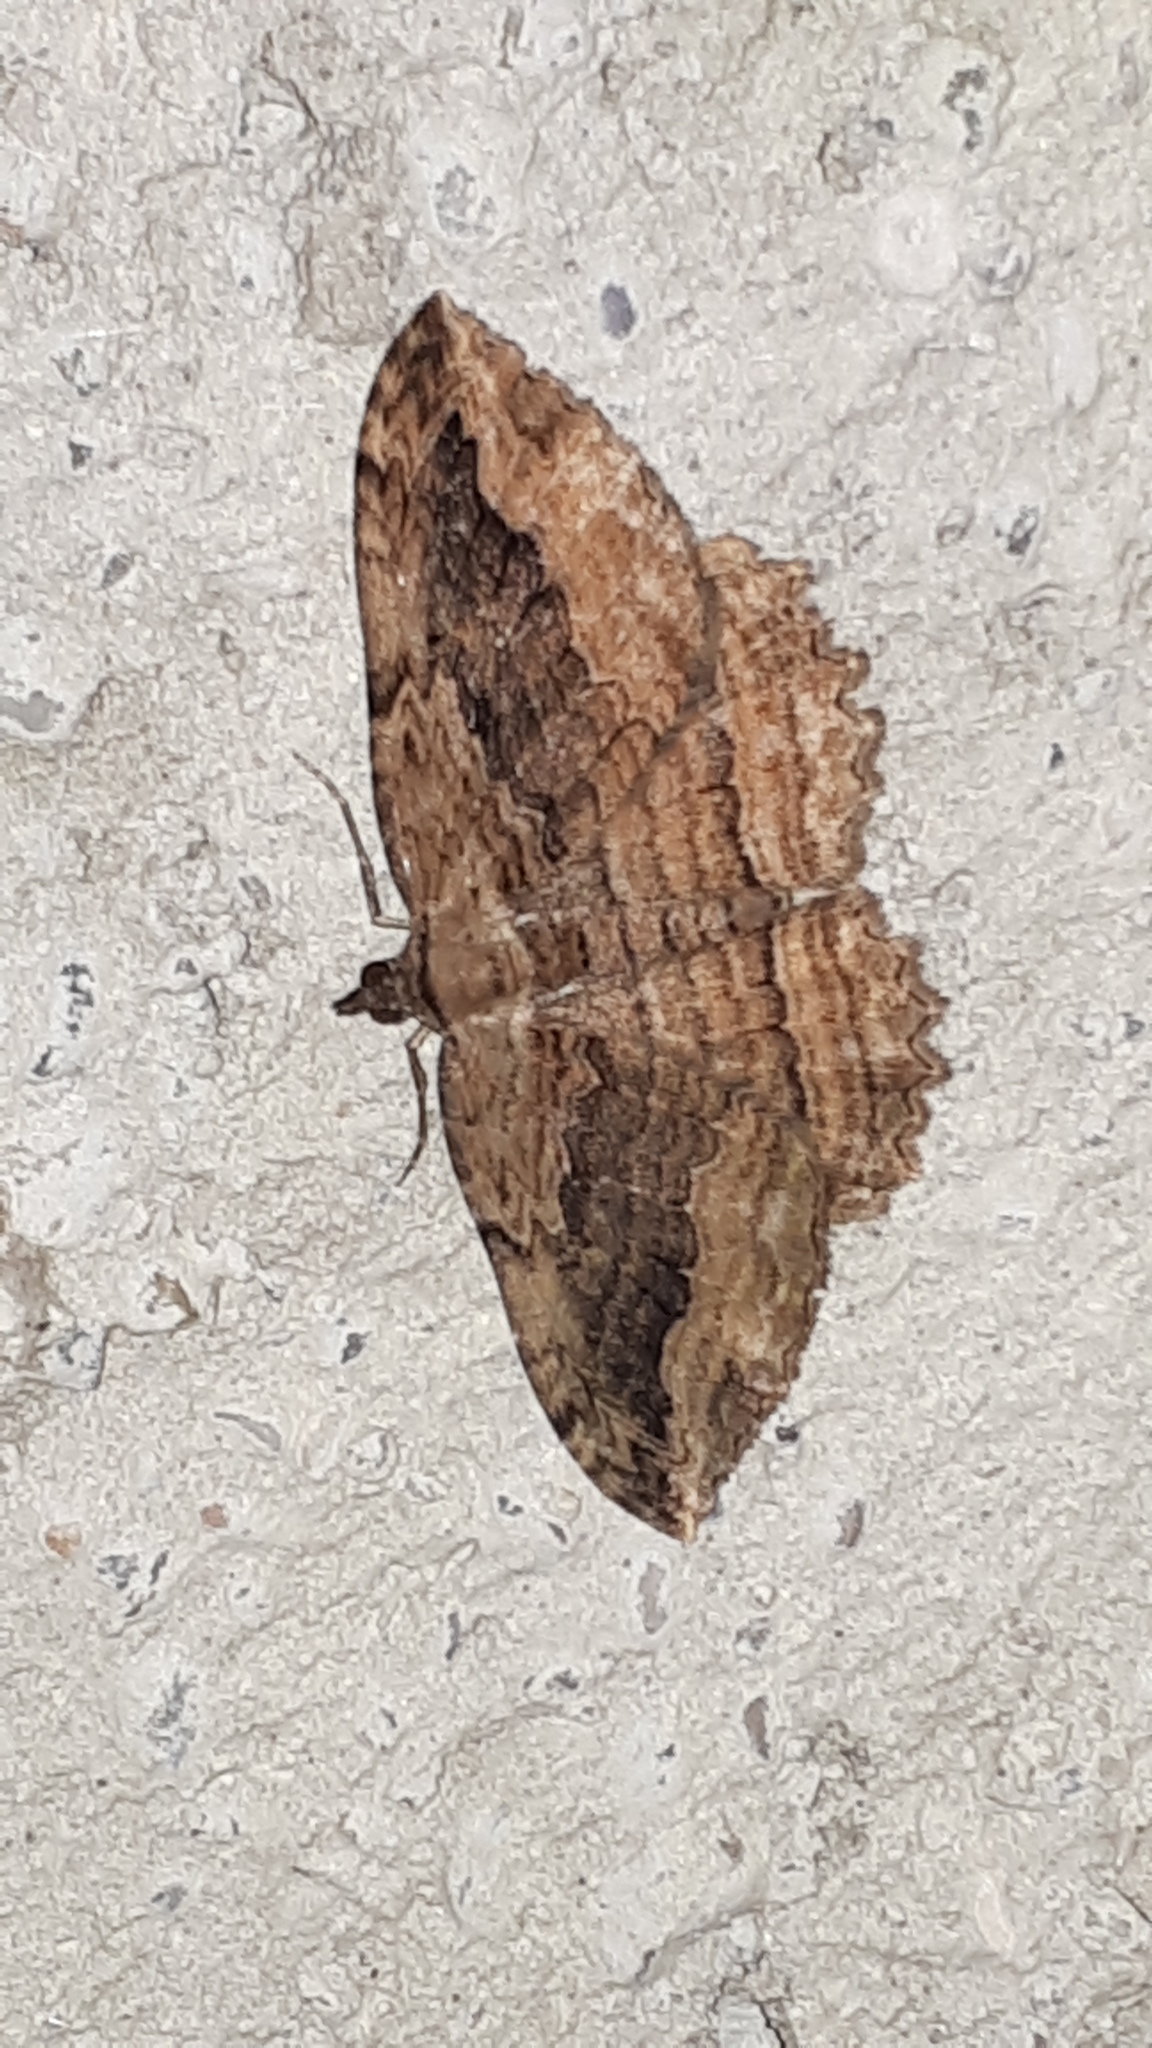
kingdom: Animalia
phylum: Arthropoda
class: Insecta
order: Lepidoptera
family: Geometridae
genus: Philereme
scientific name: Philereme transversata
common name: Dark umber
